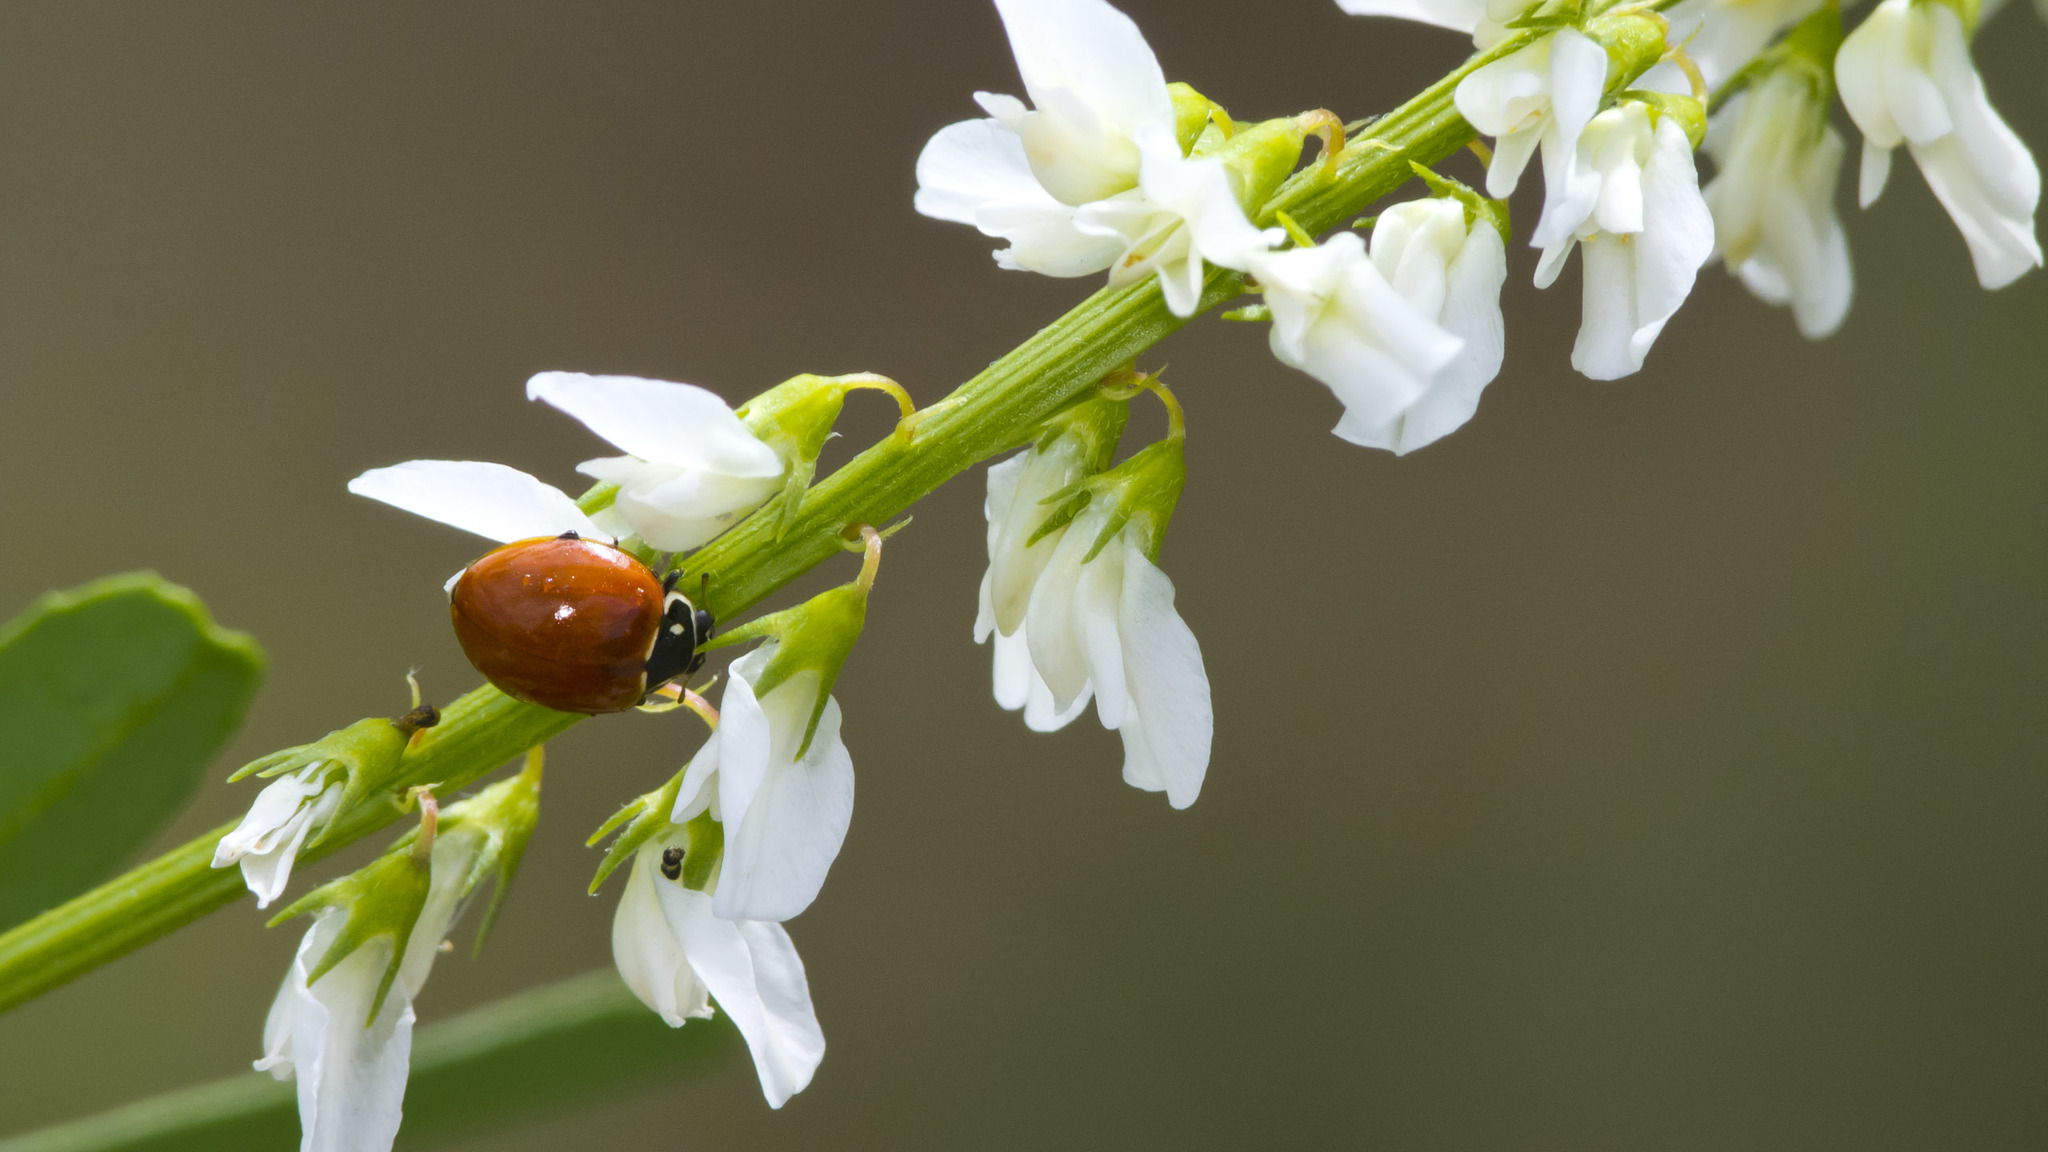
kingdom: Animalia
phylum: Arthropoda
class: Insecta
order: Coleoptera
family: Coccinellidae
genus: Cycloneda
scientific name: Cycloneda emarginata
